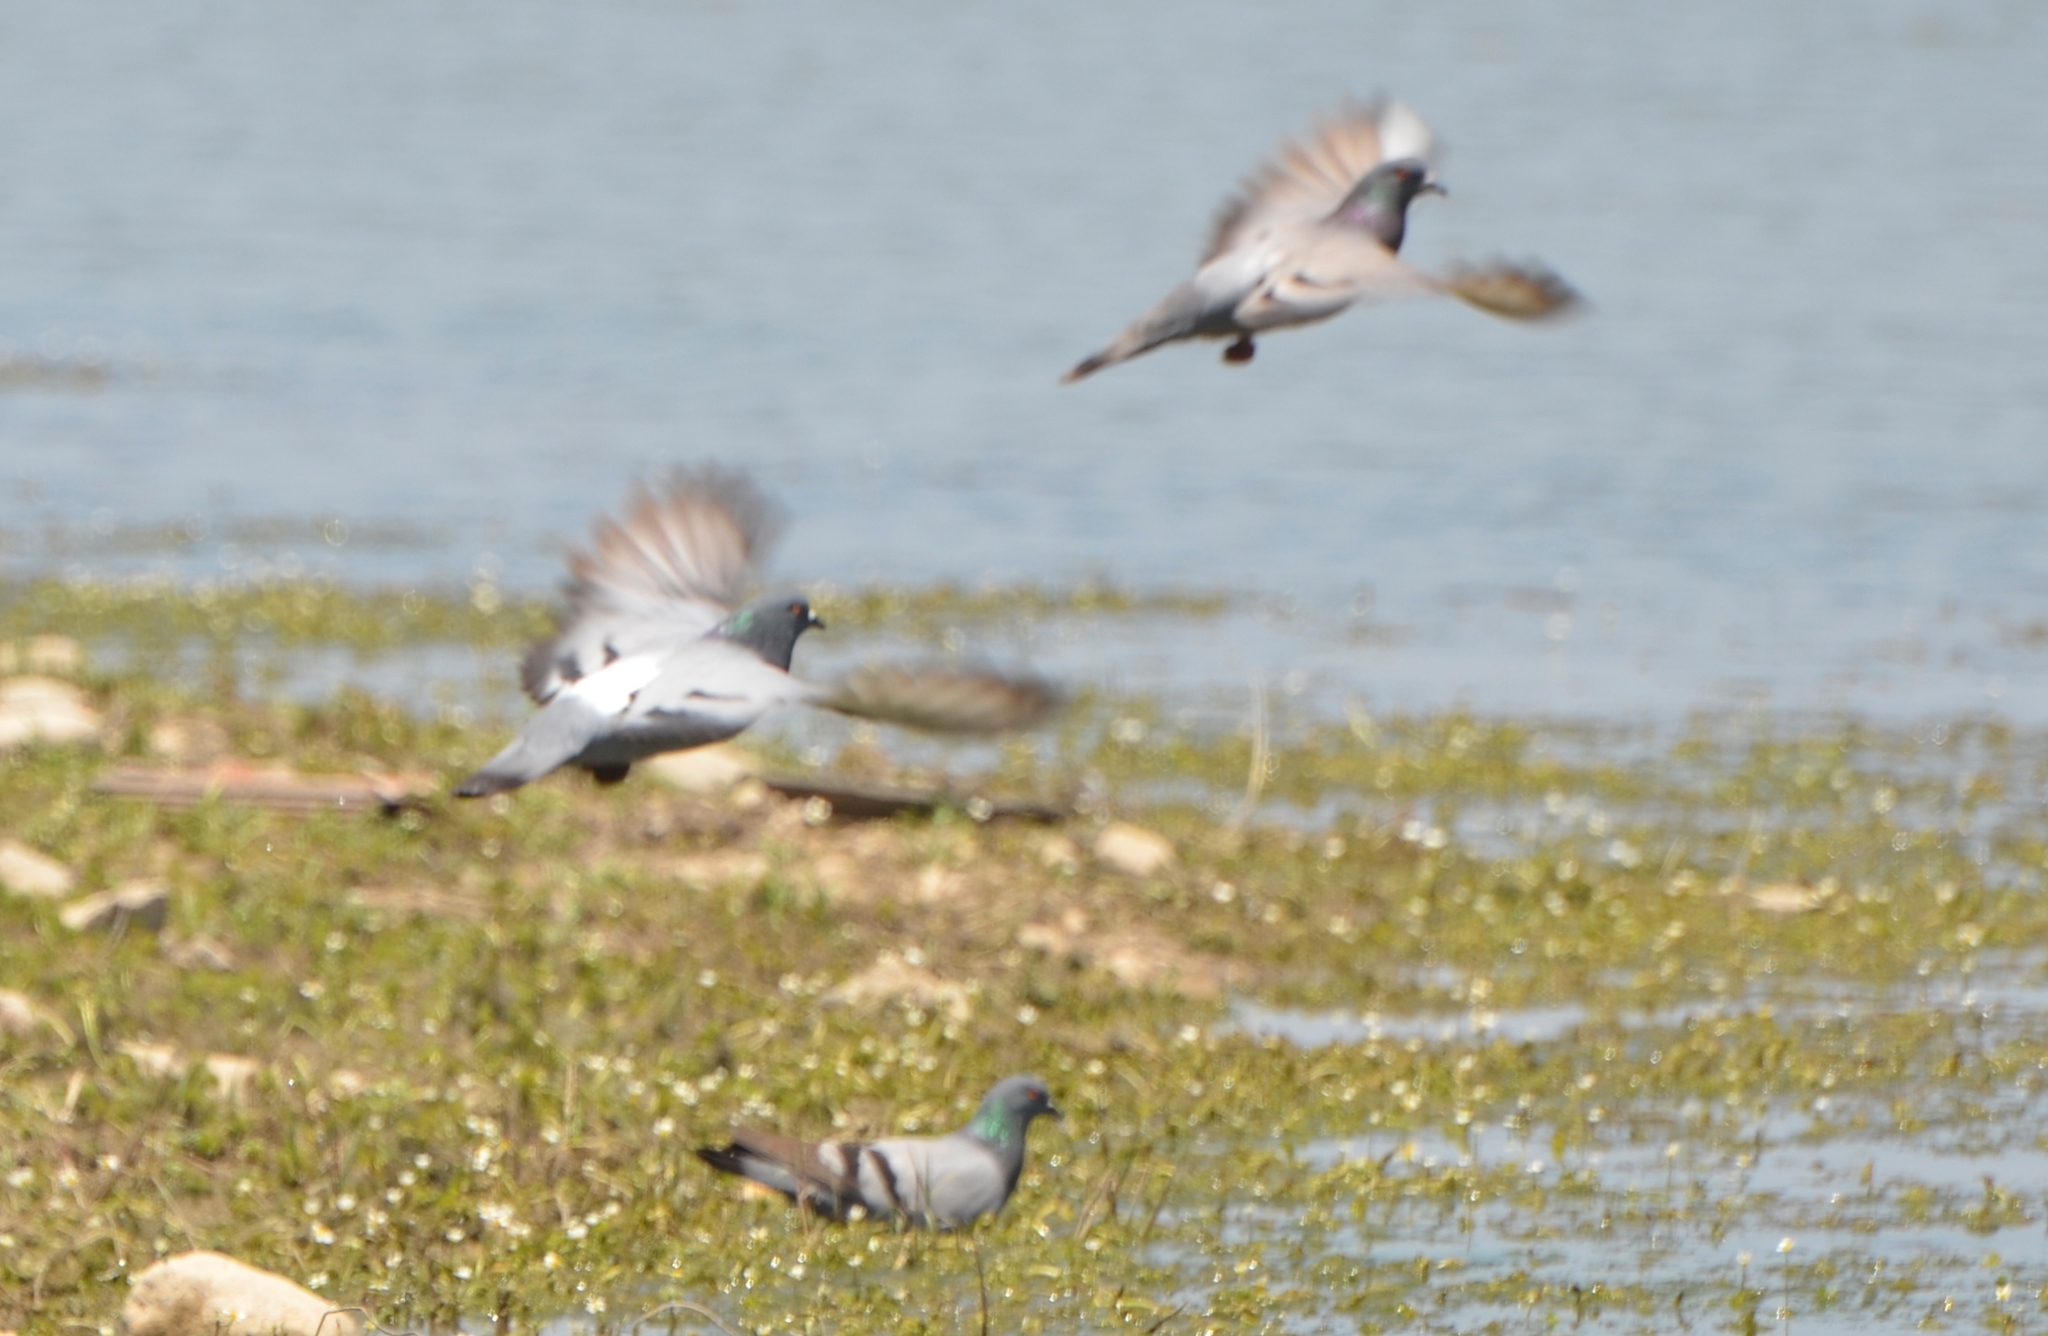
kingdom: Animalia
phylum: Chordata
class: Aves
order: Columbiformes
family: Columbidae
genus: Columba
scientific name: Columba livia
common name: Rock pigeon
